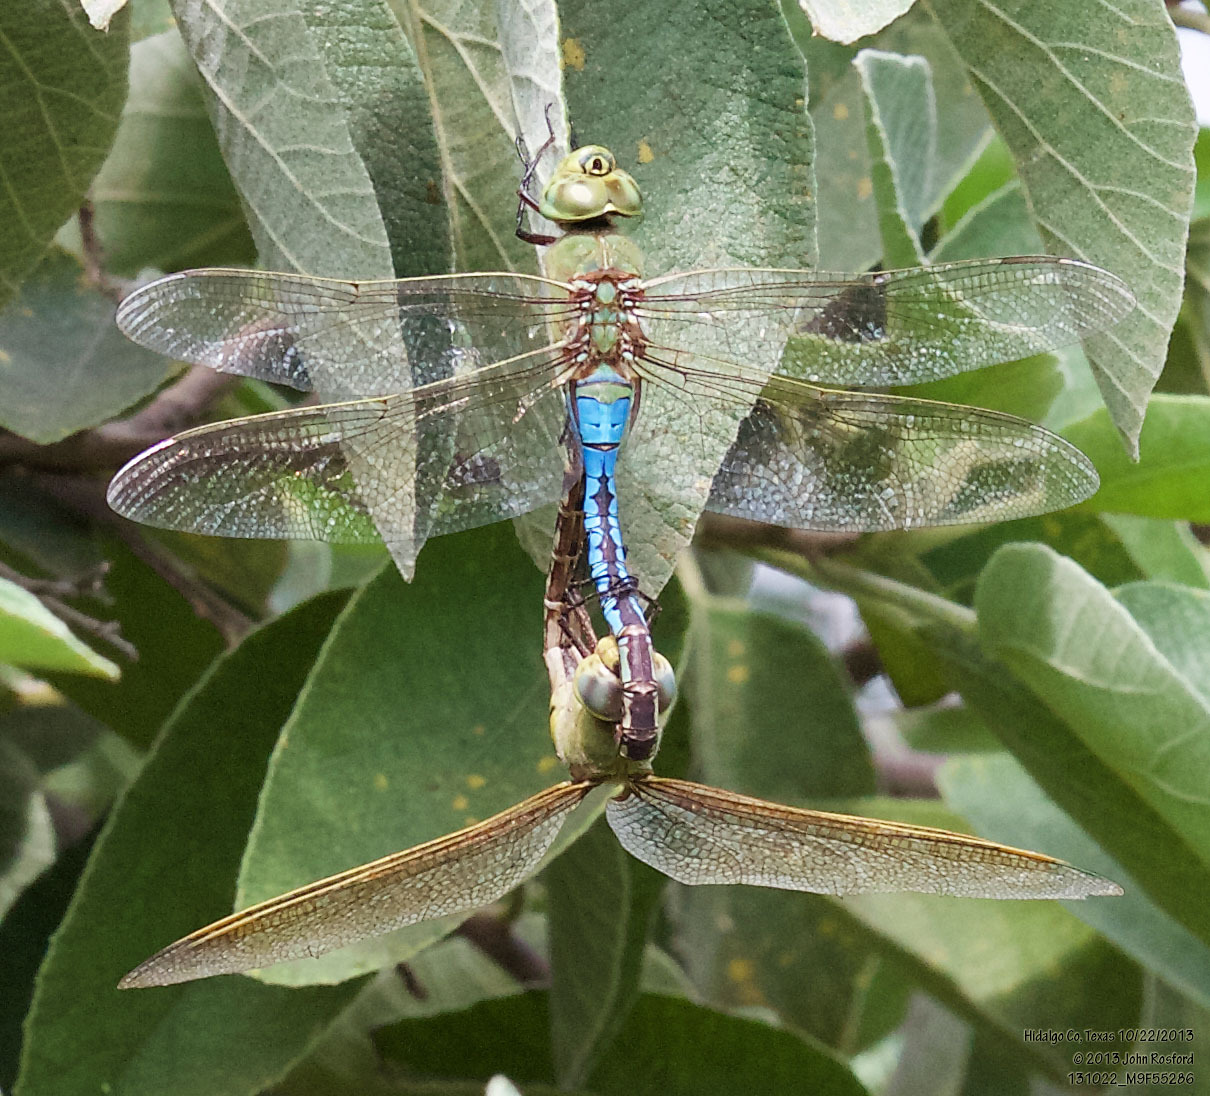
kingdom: Animalia
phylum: Arthropoda
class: Insecta
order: Odonata
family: Aeshnidae
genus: Anax
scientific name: Anax junius
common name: Common green darner
